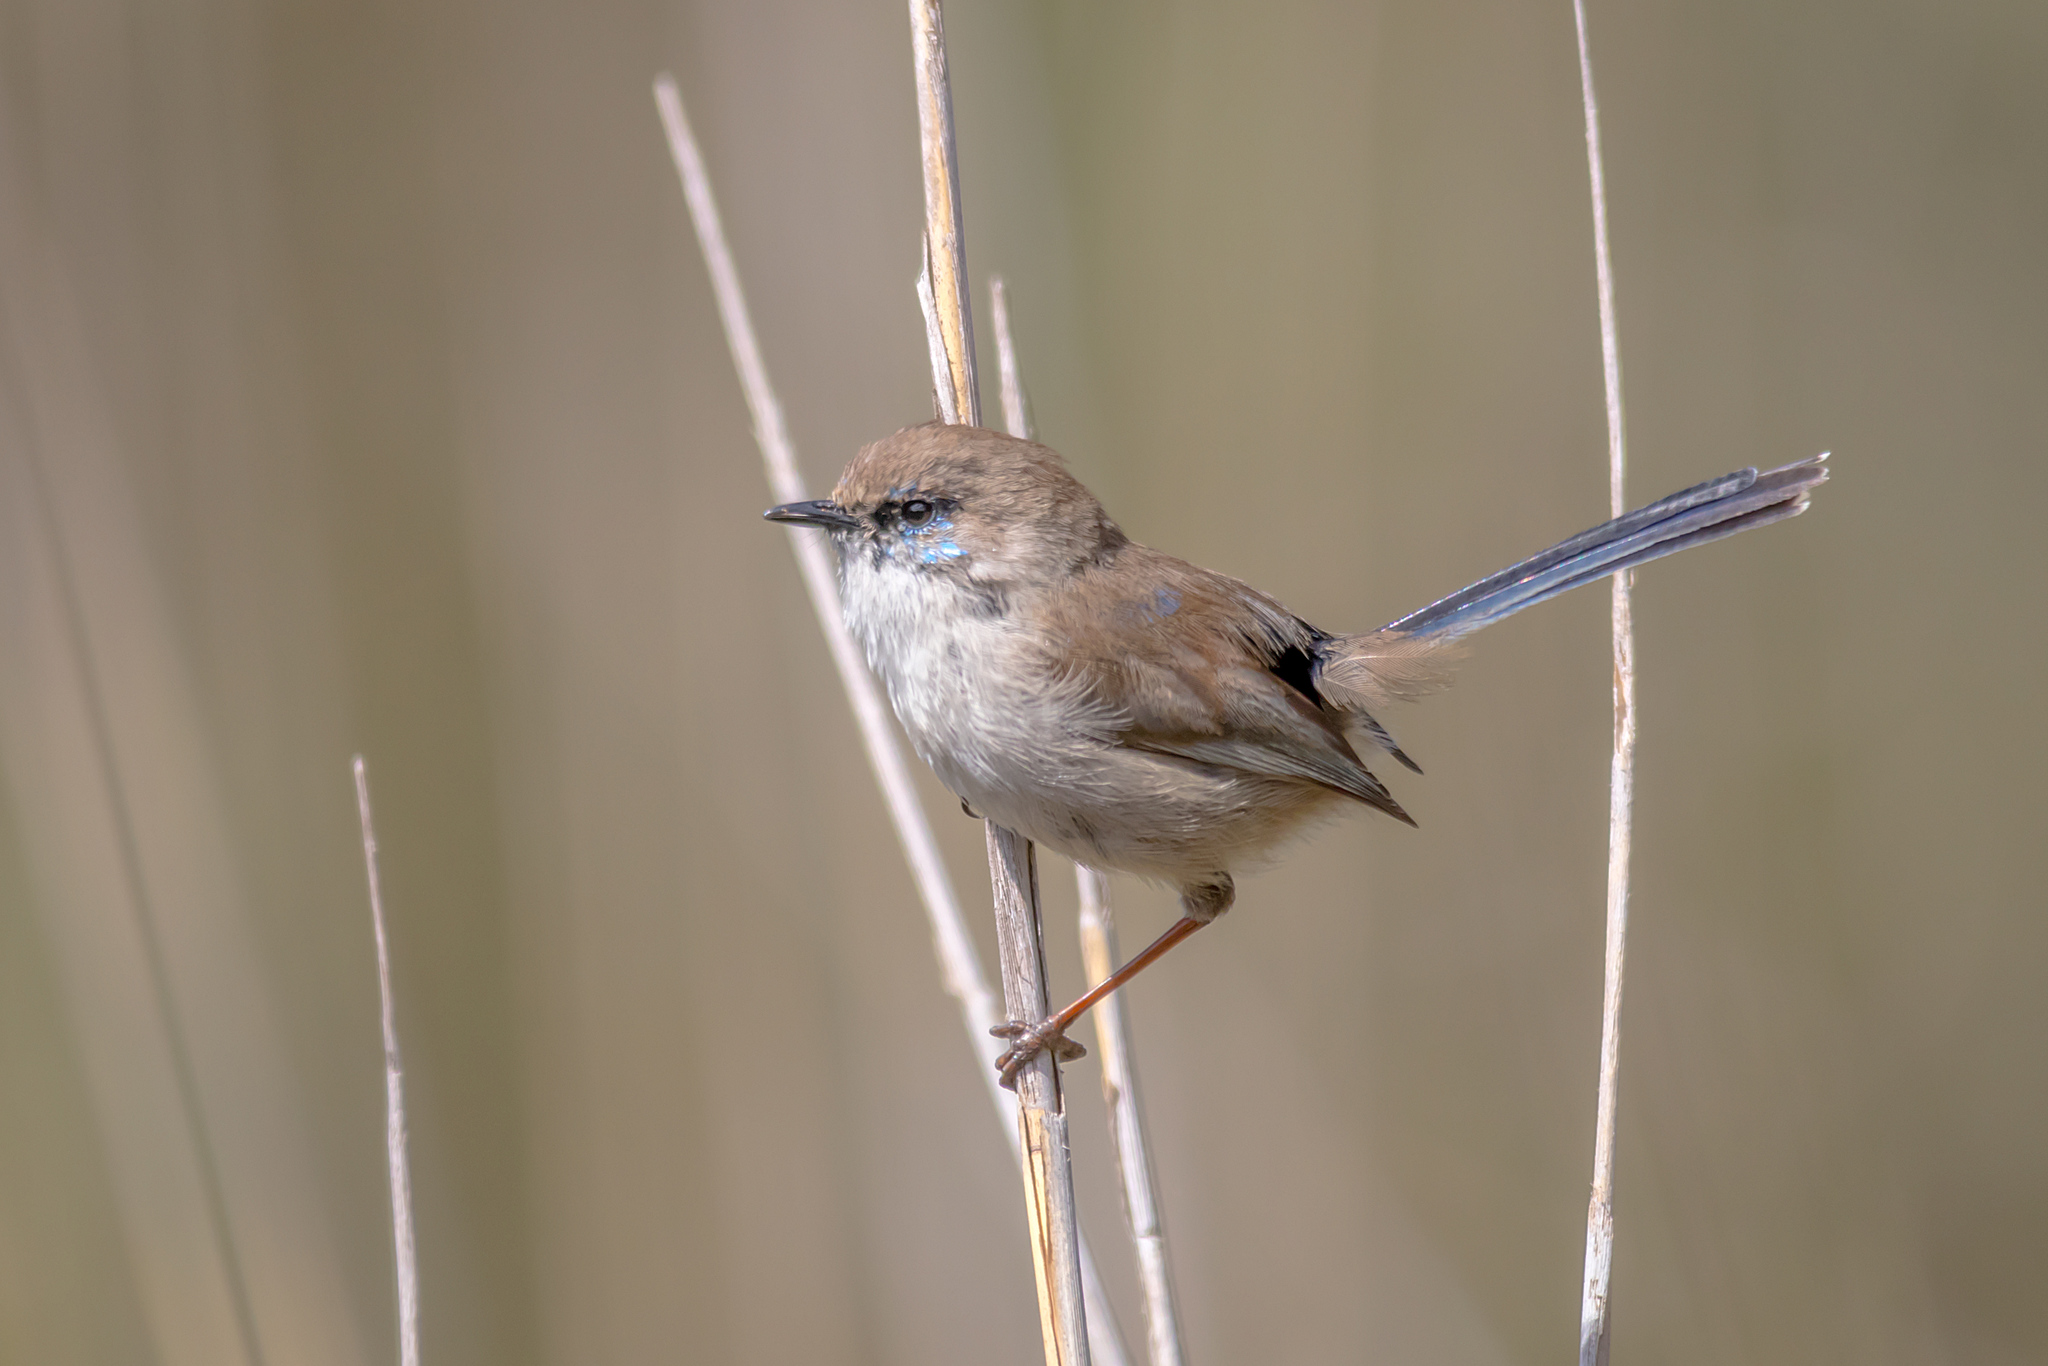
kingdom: Animalia
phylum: Chordata
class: Aves
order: Passeriformes
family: Maluridae
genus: Malurus
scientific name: Malurus cyaneus
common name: Superb fairywren
